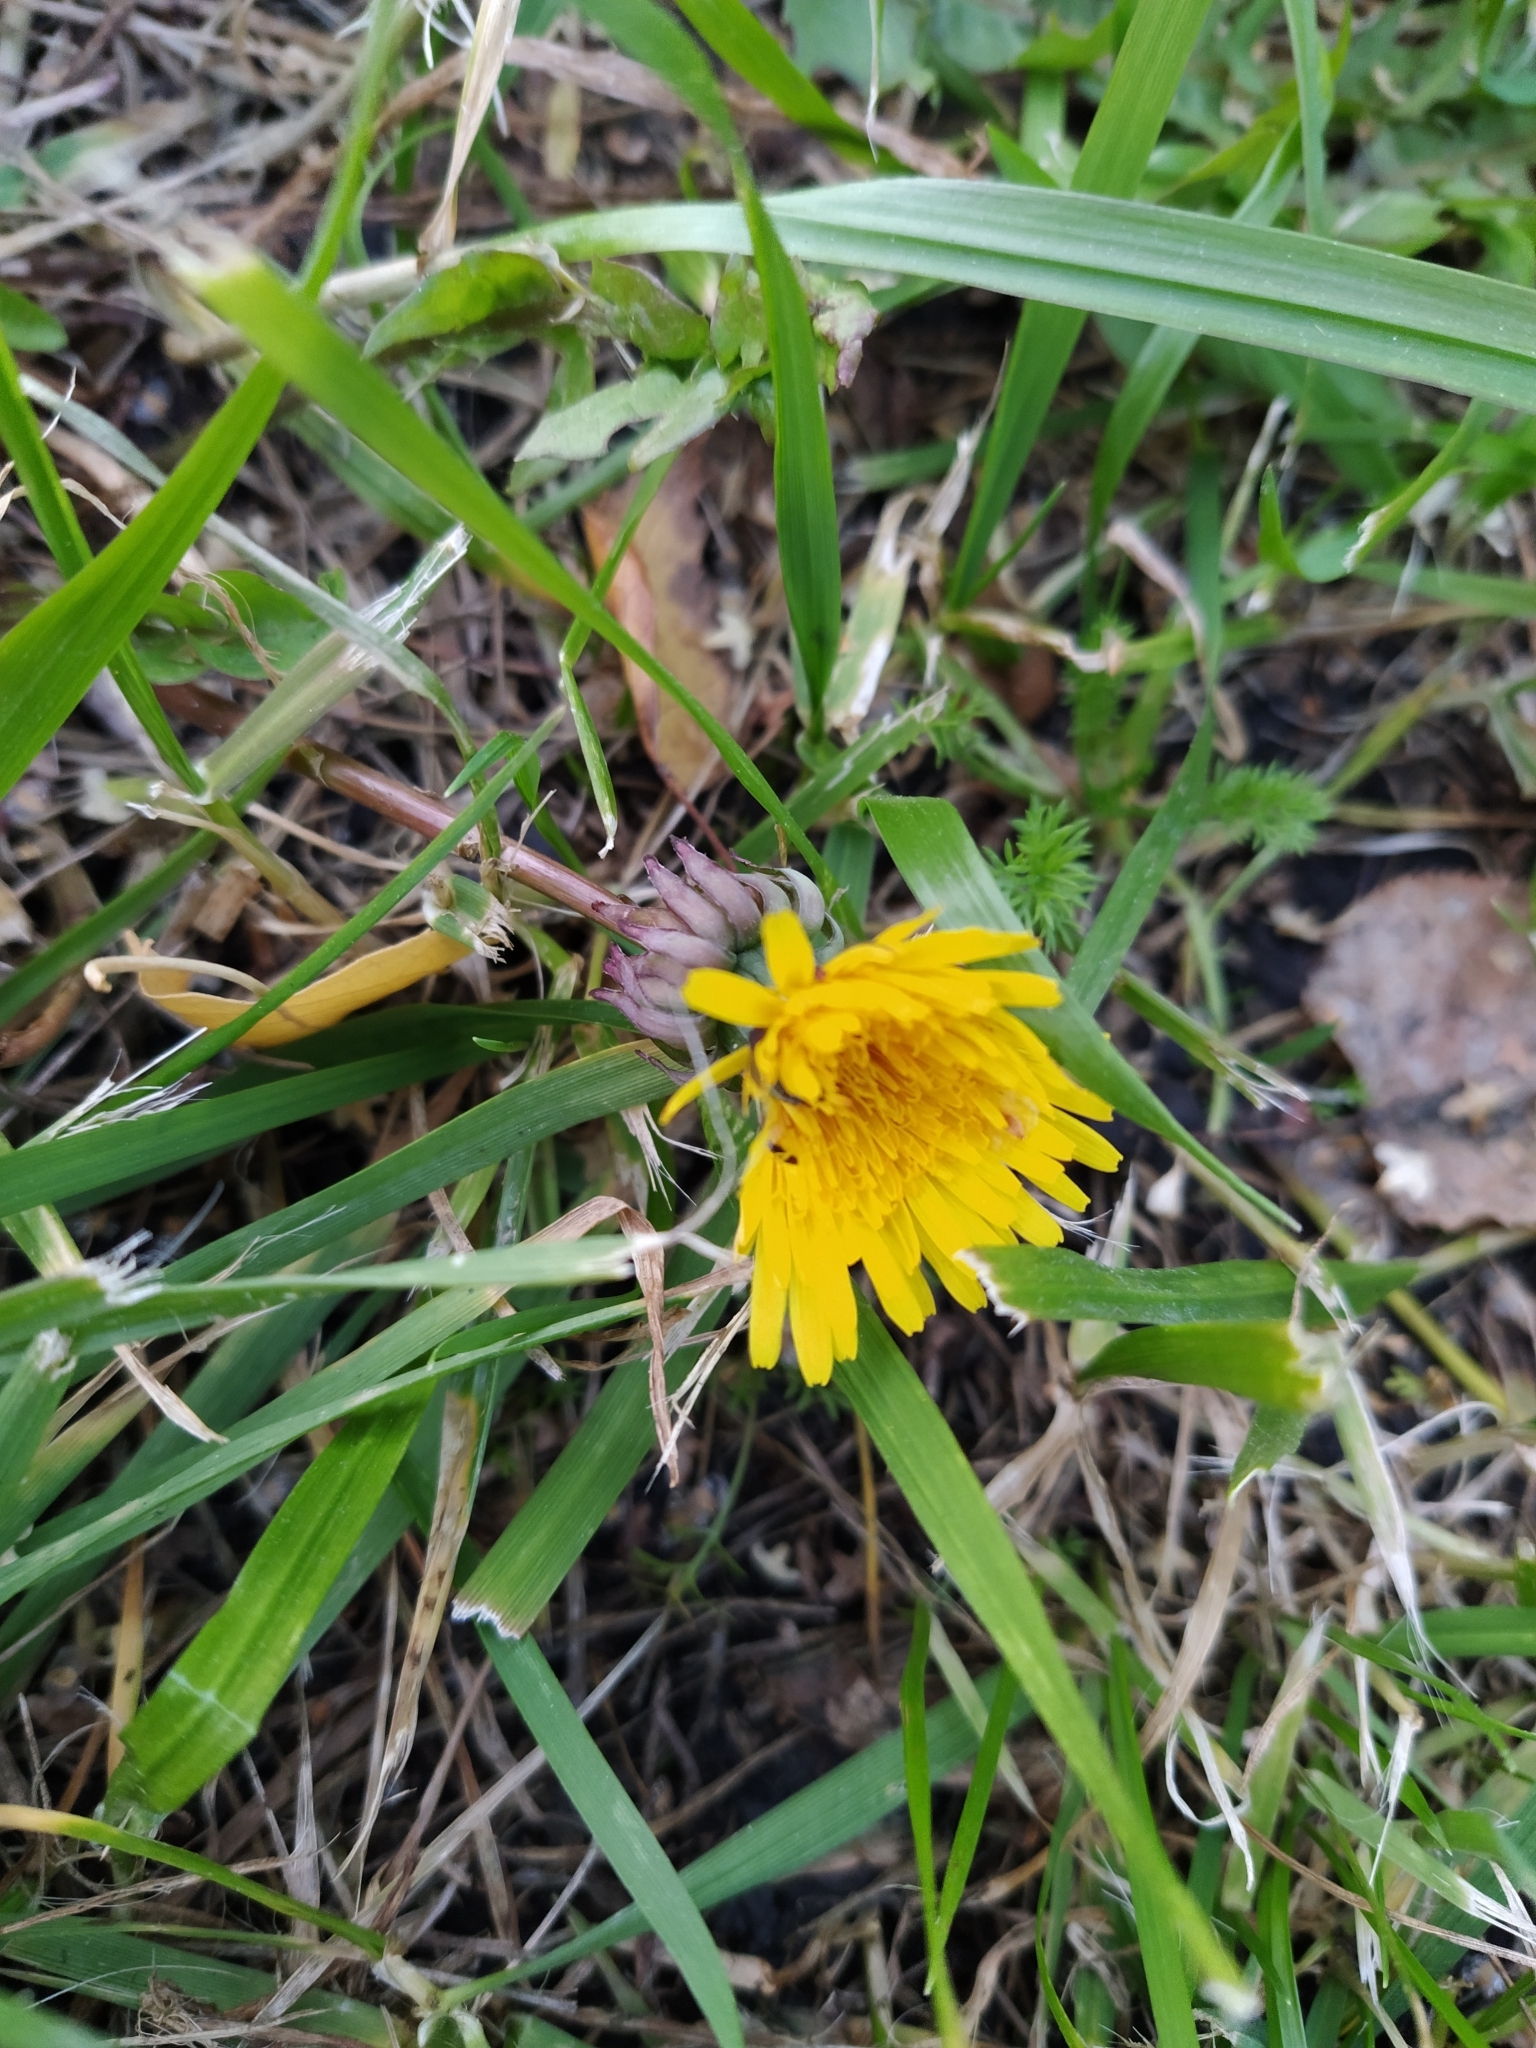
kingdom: Plantae
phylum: Tracheophyta
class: Magnoliopsida
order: Asterales
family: Asteraceae
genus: Taraxacum
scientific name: Taraxacum officinale
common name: Common dandelion
